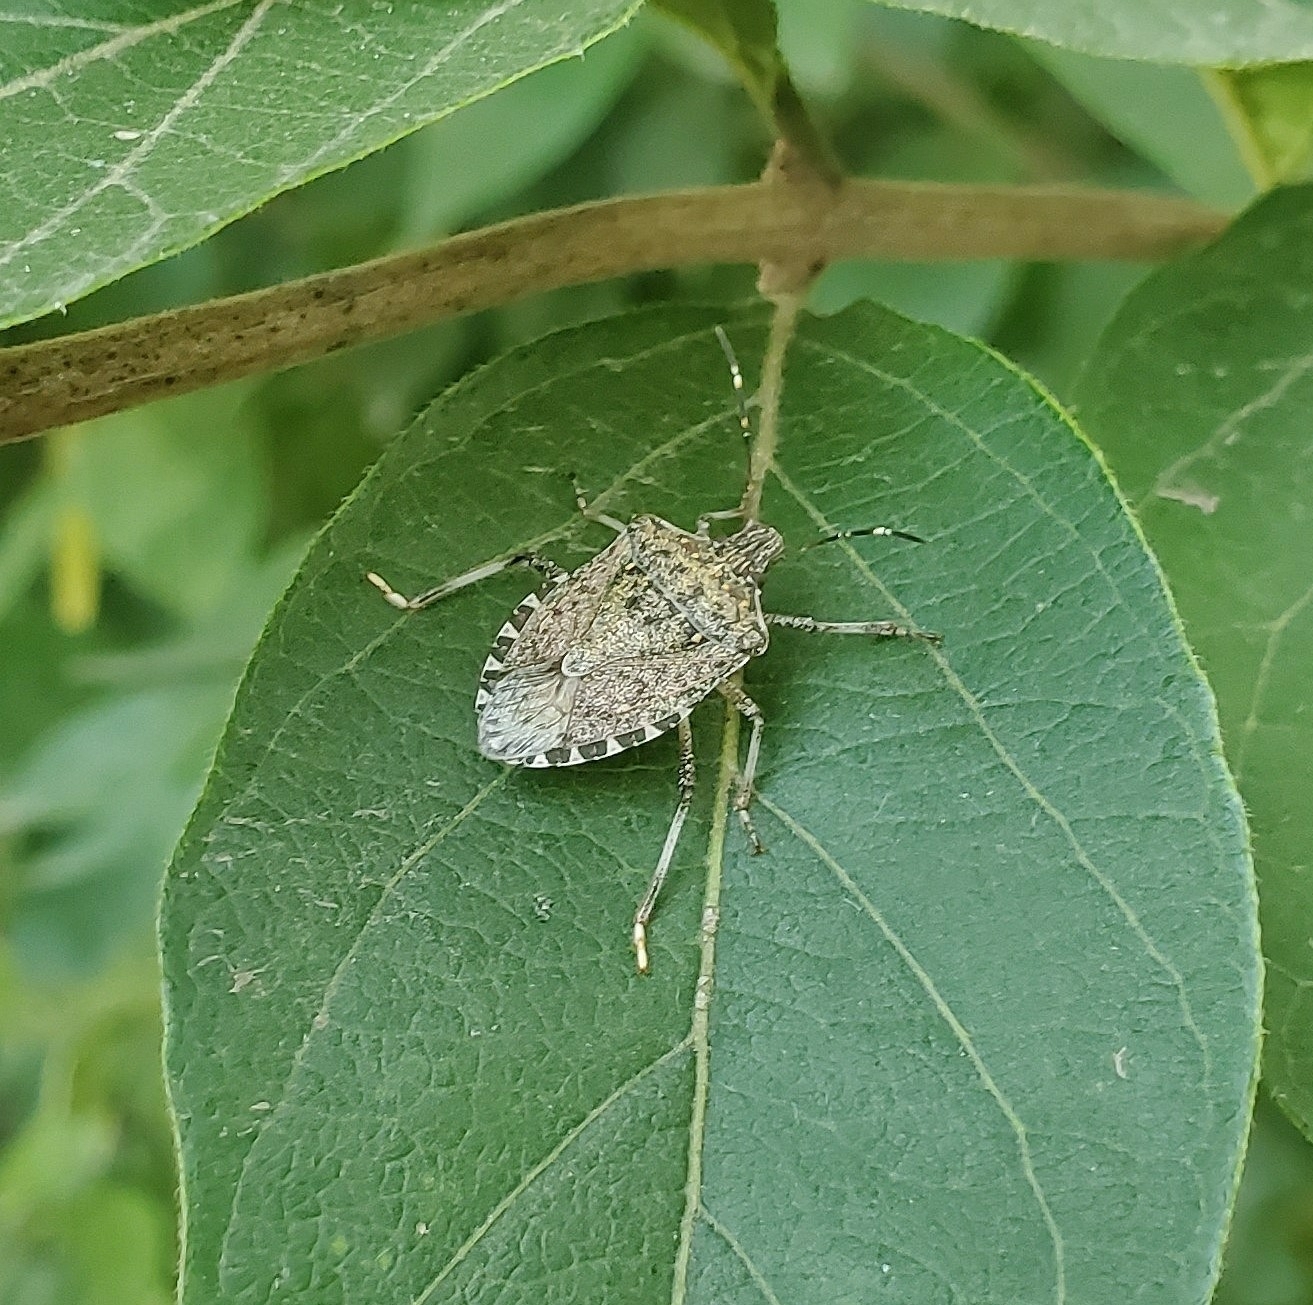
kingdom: Animalia
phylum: Arthropoda
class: Insecta
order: Hemiptera
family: Pentatomidae
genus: Halyomorpha
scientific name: Halyomorpha halys
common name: Brown marmorated stink bug
